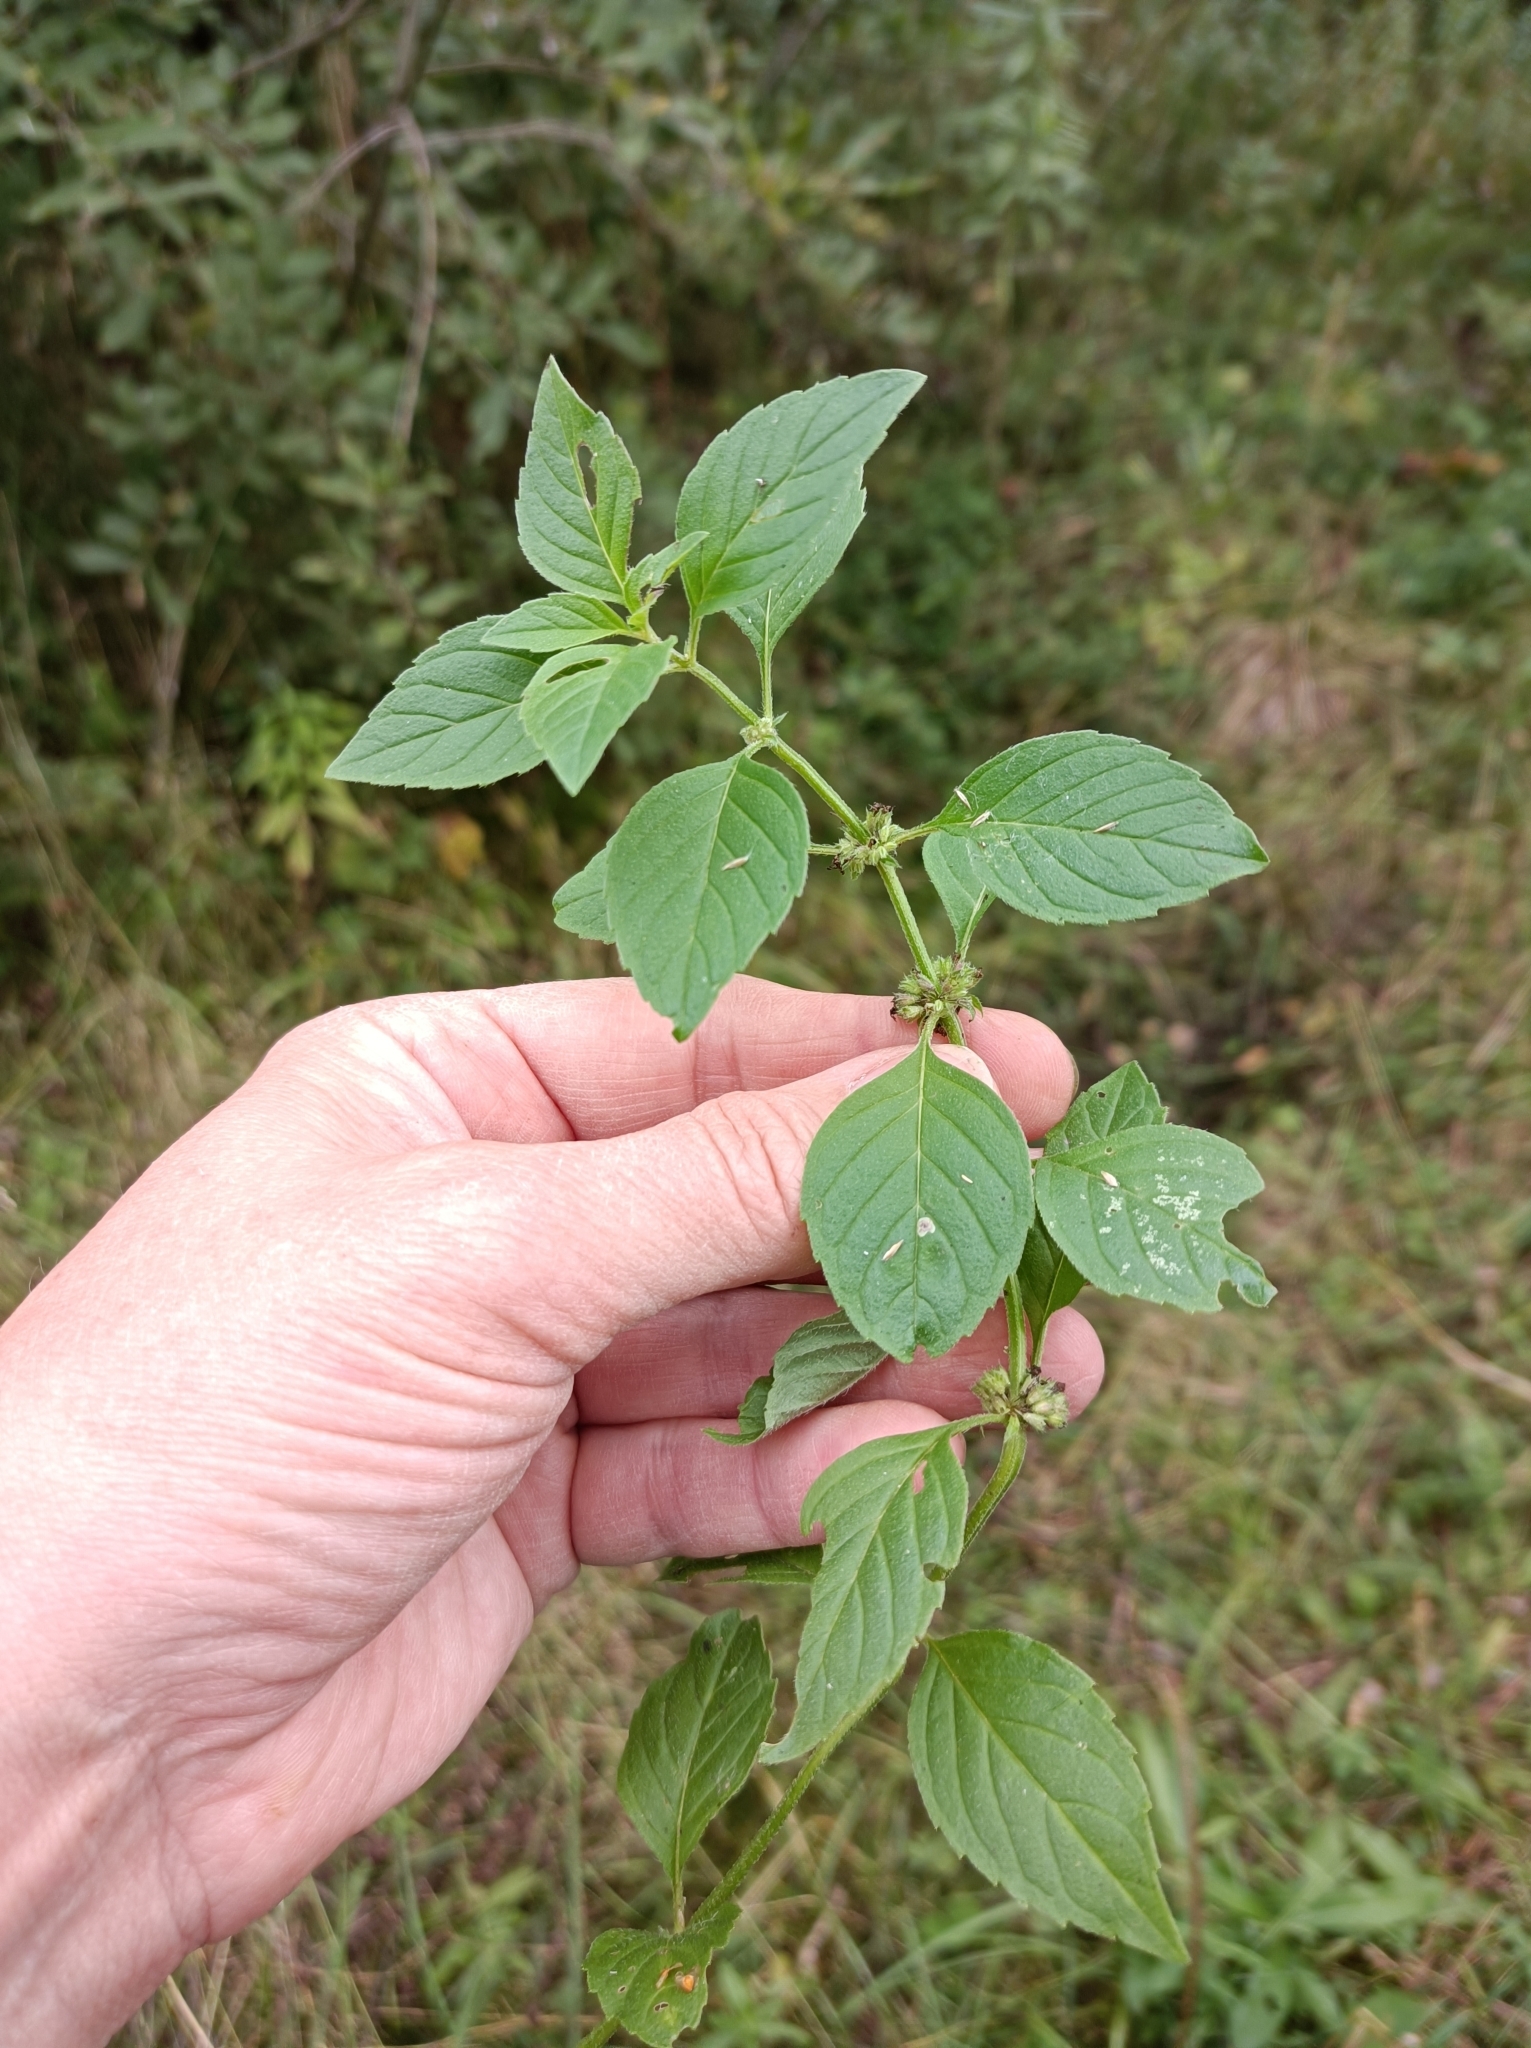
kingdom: Plantae
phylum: Tracheophyta
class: Magnoliopsida
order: Lamiales
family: Lamiaceae
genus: Mentha
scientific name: Mentha arvensis
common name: Corn mint
